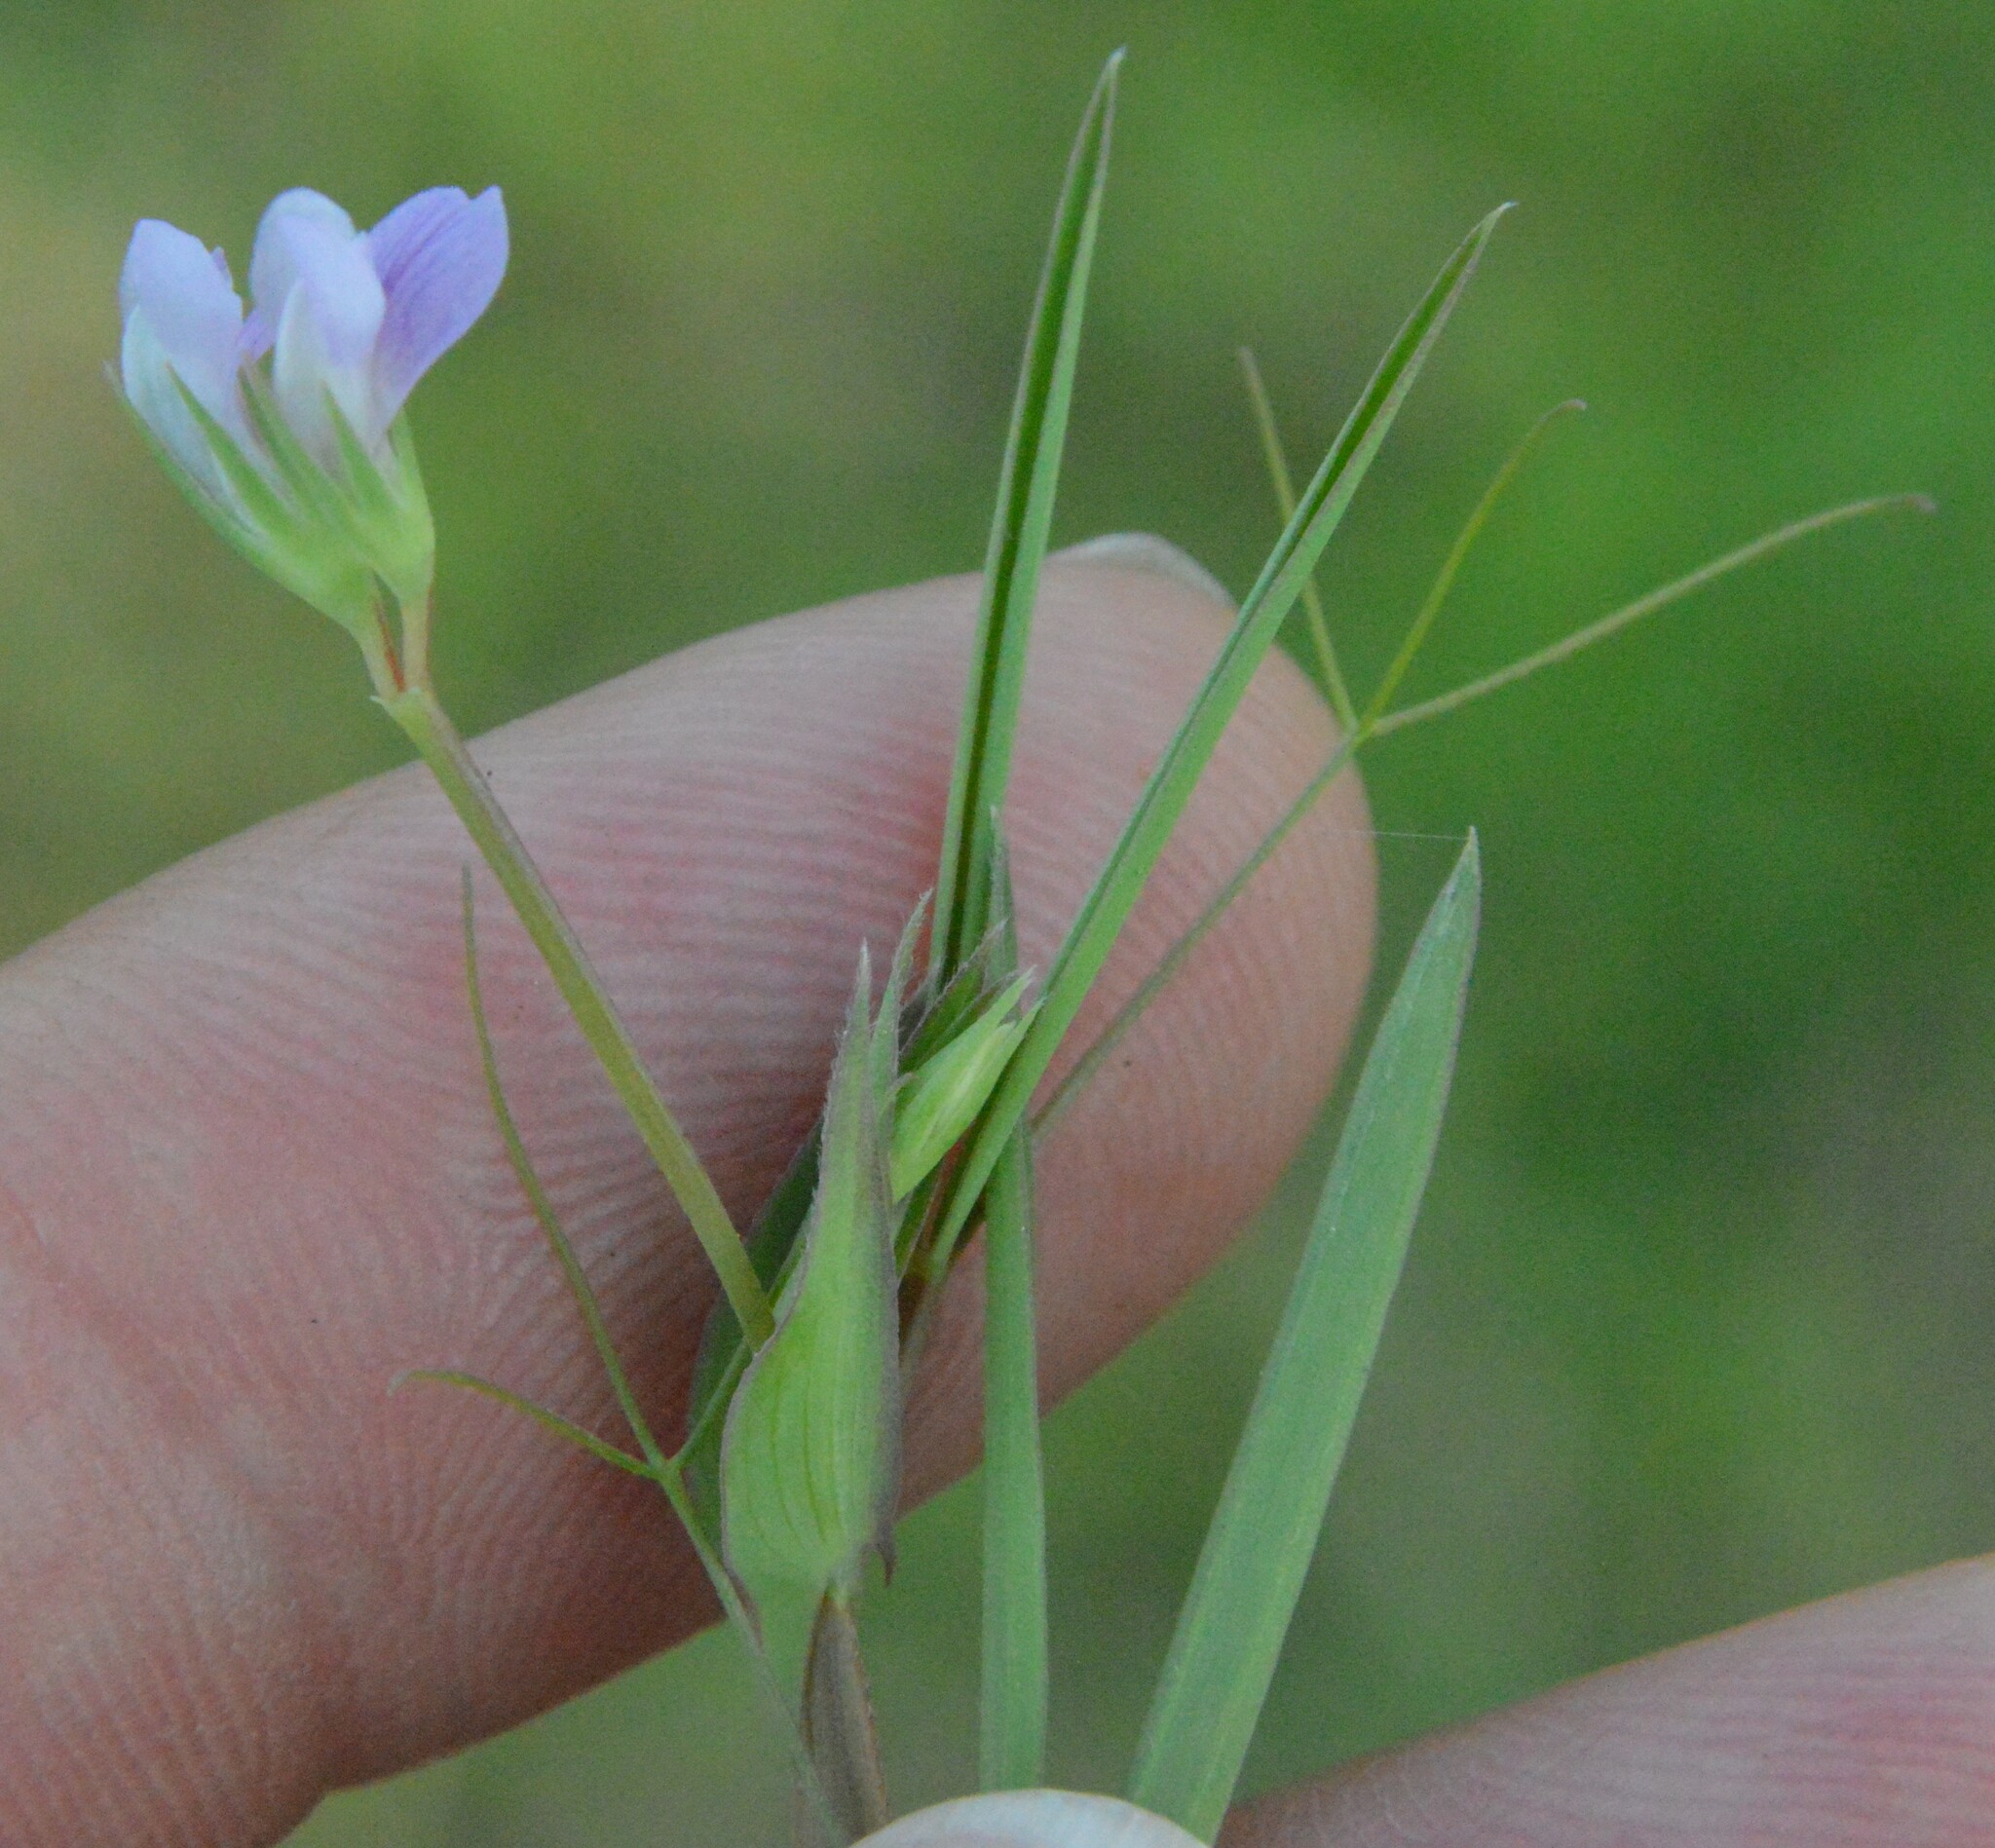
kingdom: Plantae
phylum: Tracheophyta
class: Magnoliopsida
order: Fabales
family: Fabaceae
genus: Lathyrus
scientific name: Lathyrus pusillus
